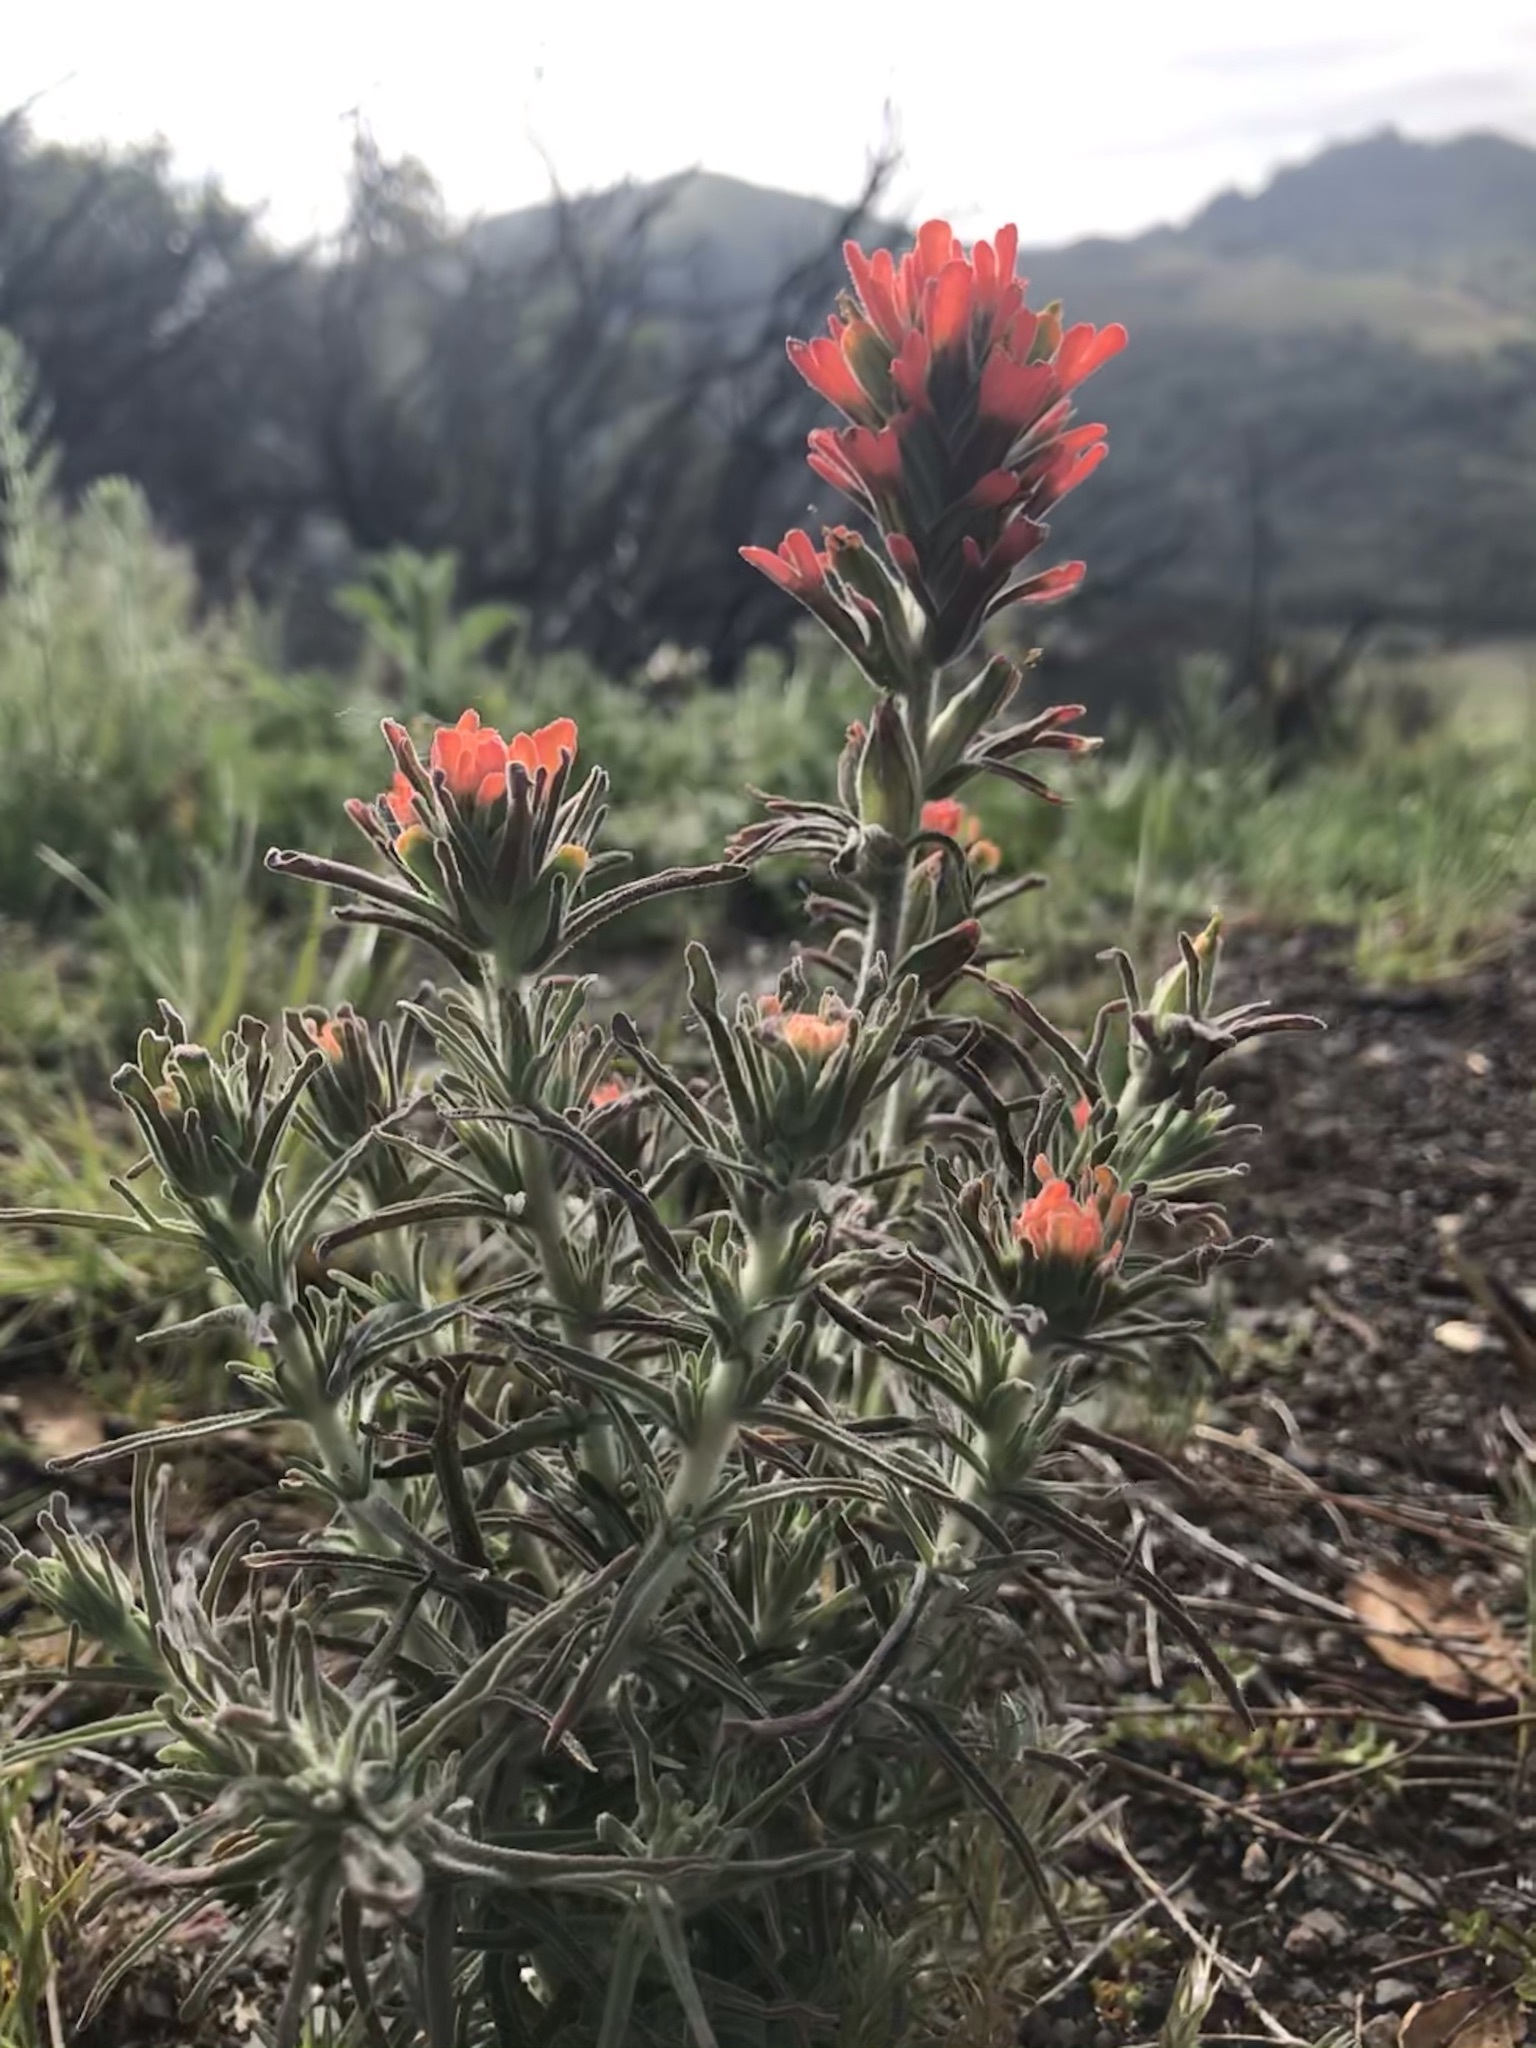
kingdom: Plantae
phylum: Tracheophyta
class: Magnoliopsida
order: Lamiales
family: Orobanchaceae
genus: Castilleja
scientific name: Castilleja foliolosa
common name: Woolly indian paintbrush
